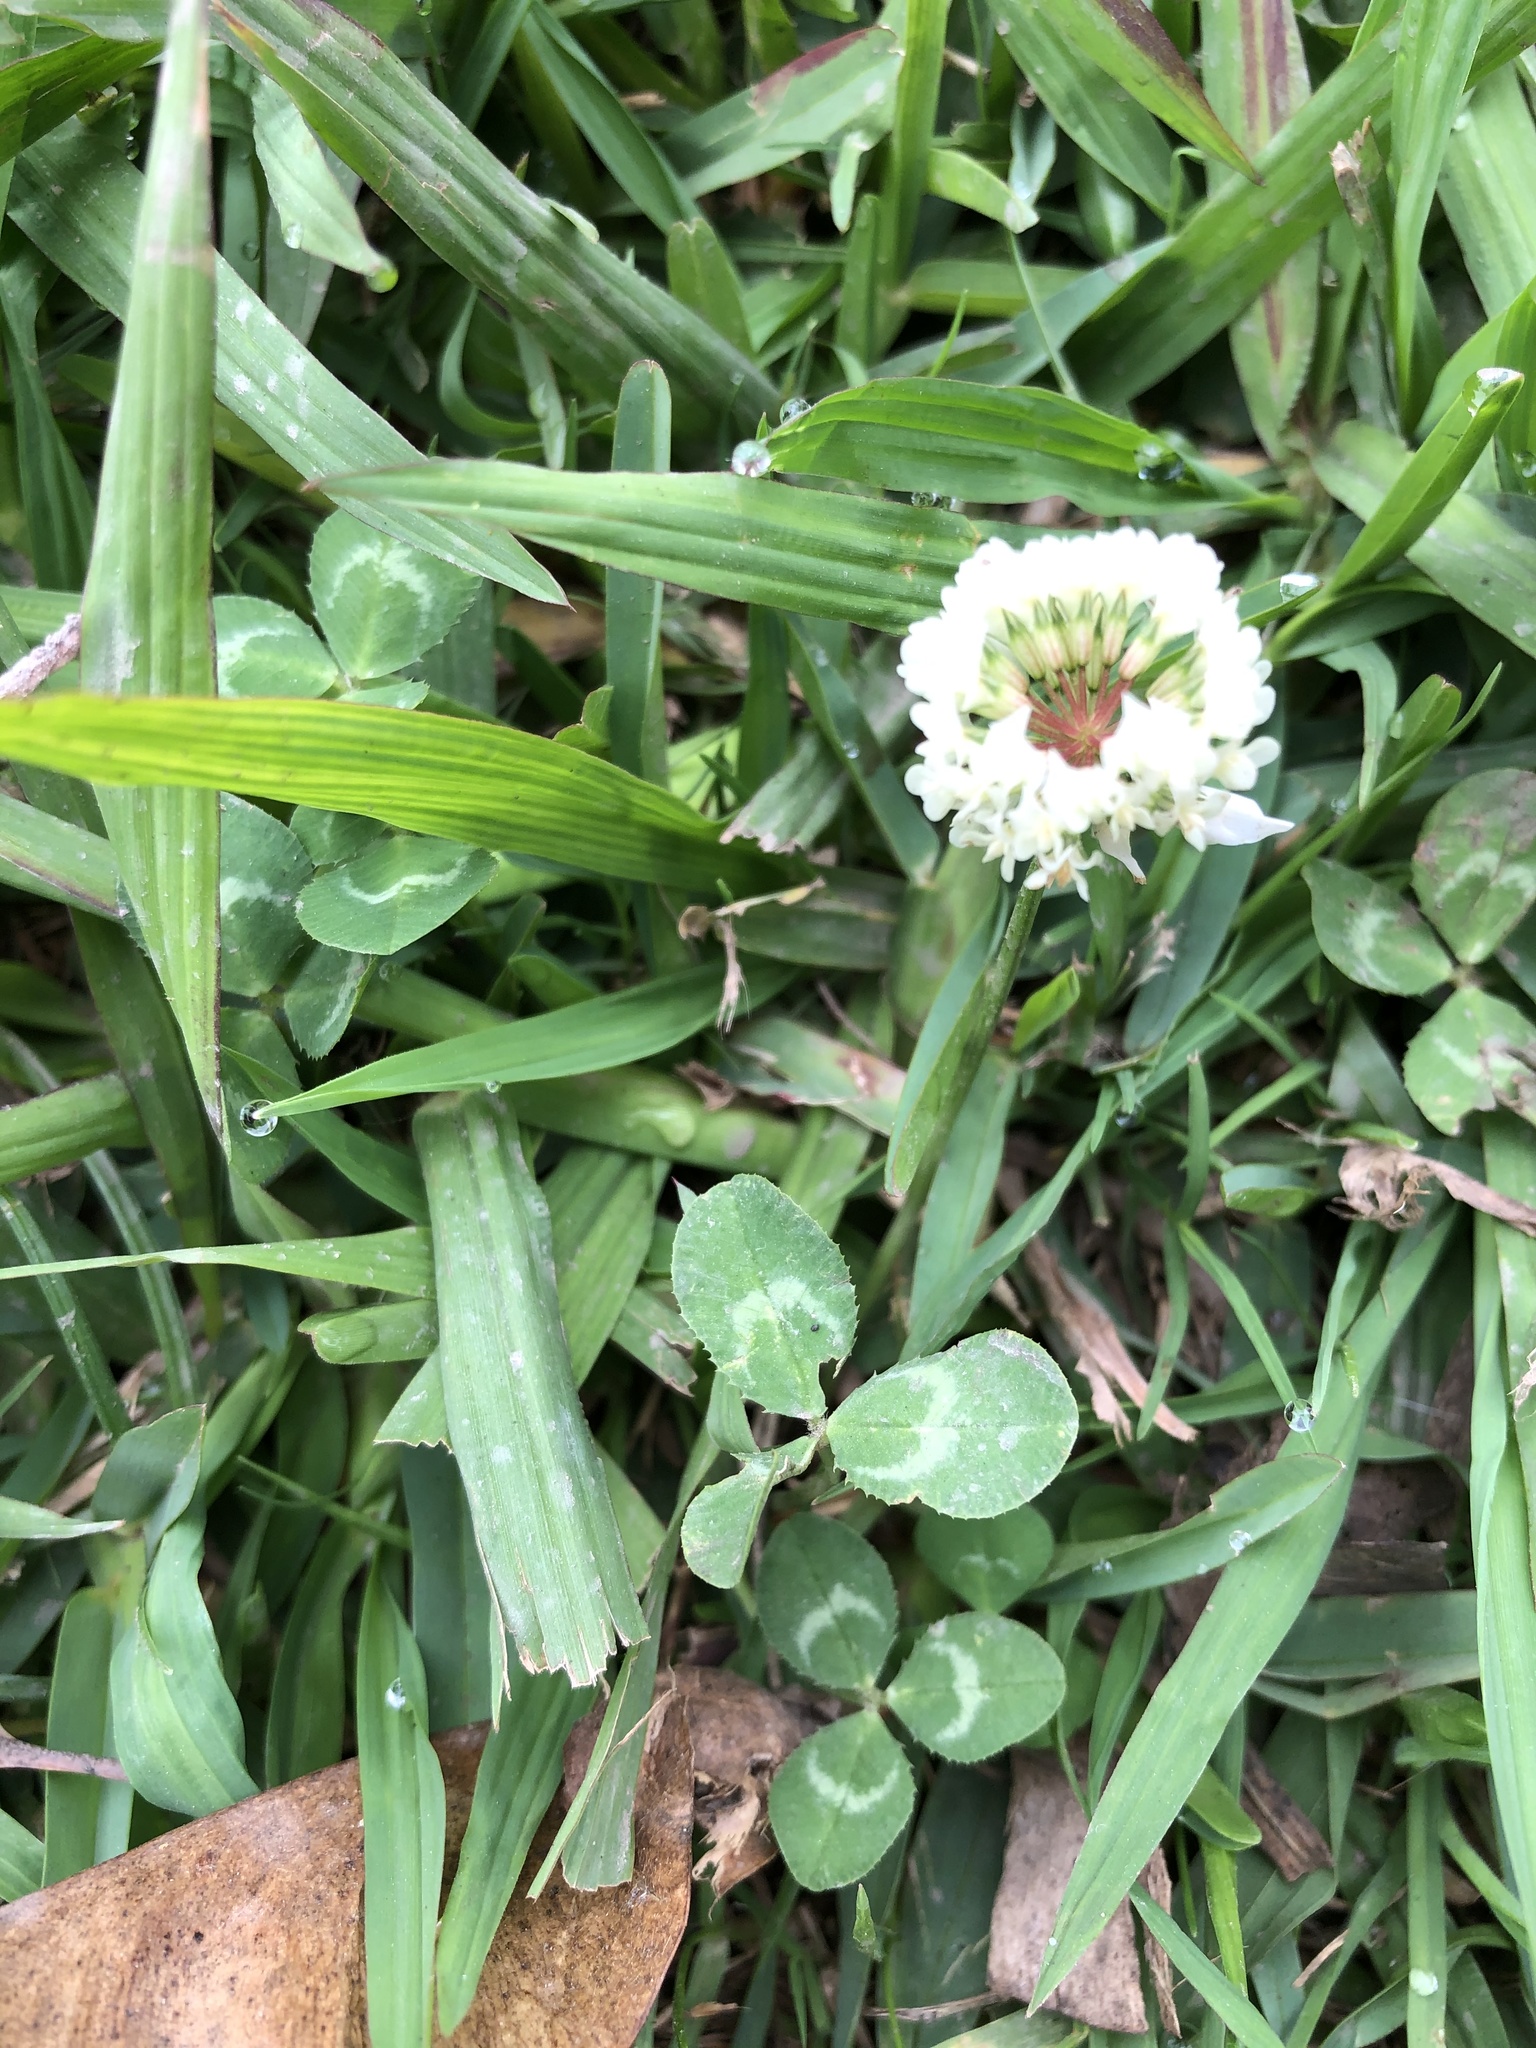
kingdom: Plantae
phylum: Tracheophyta
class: Magnoliopsida
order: Fabales
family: Fabaceae
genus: Trifolium
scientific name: Trifolium repens
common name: White clover
